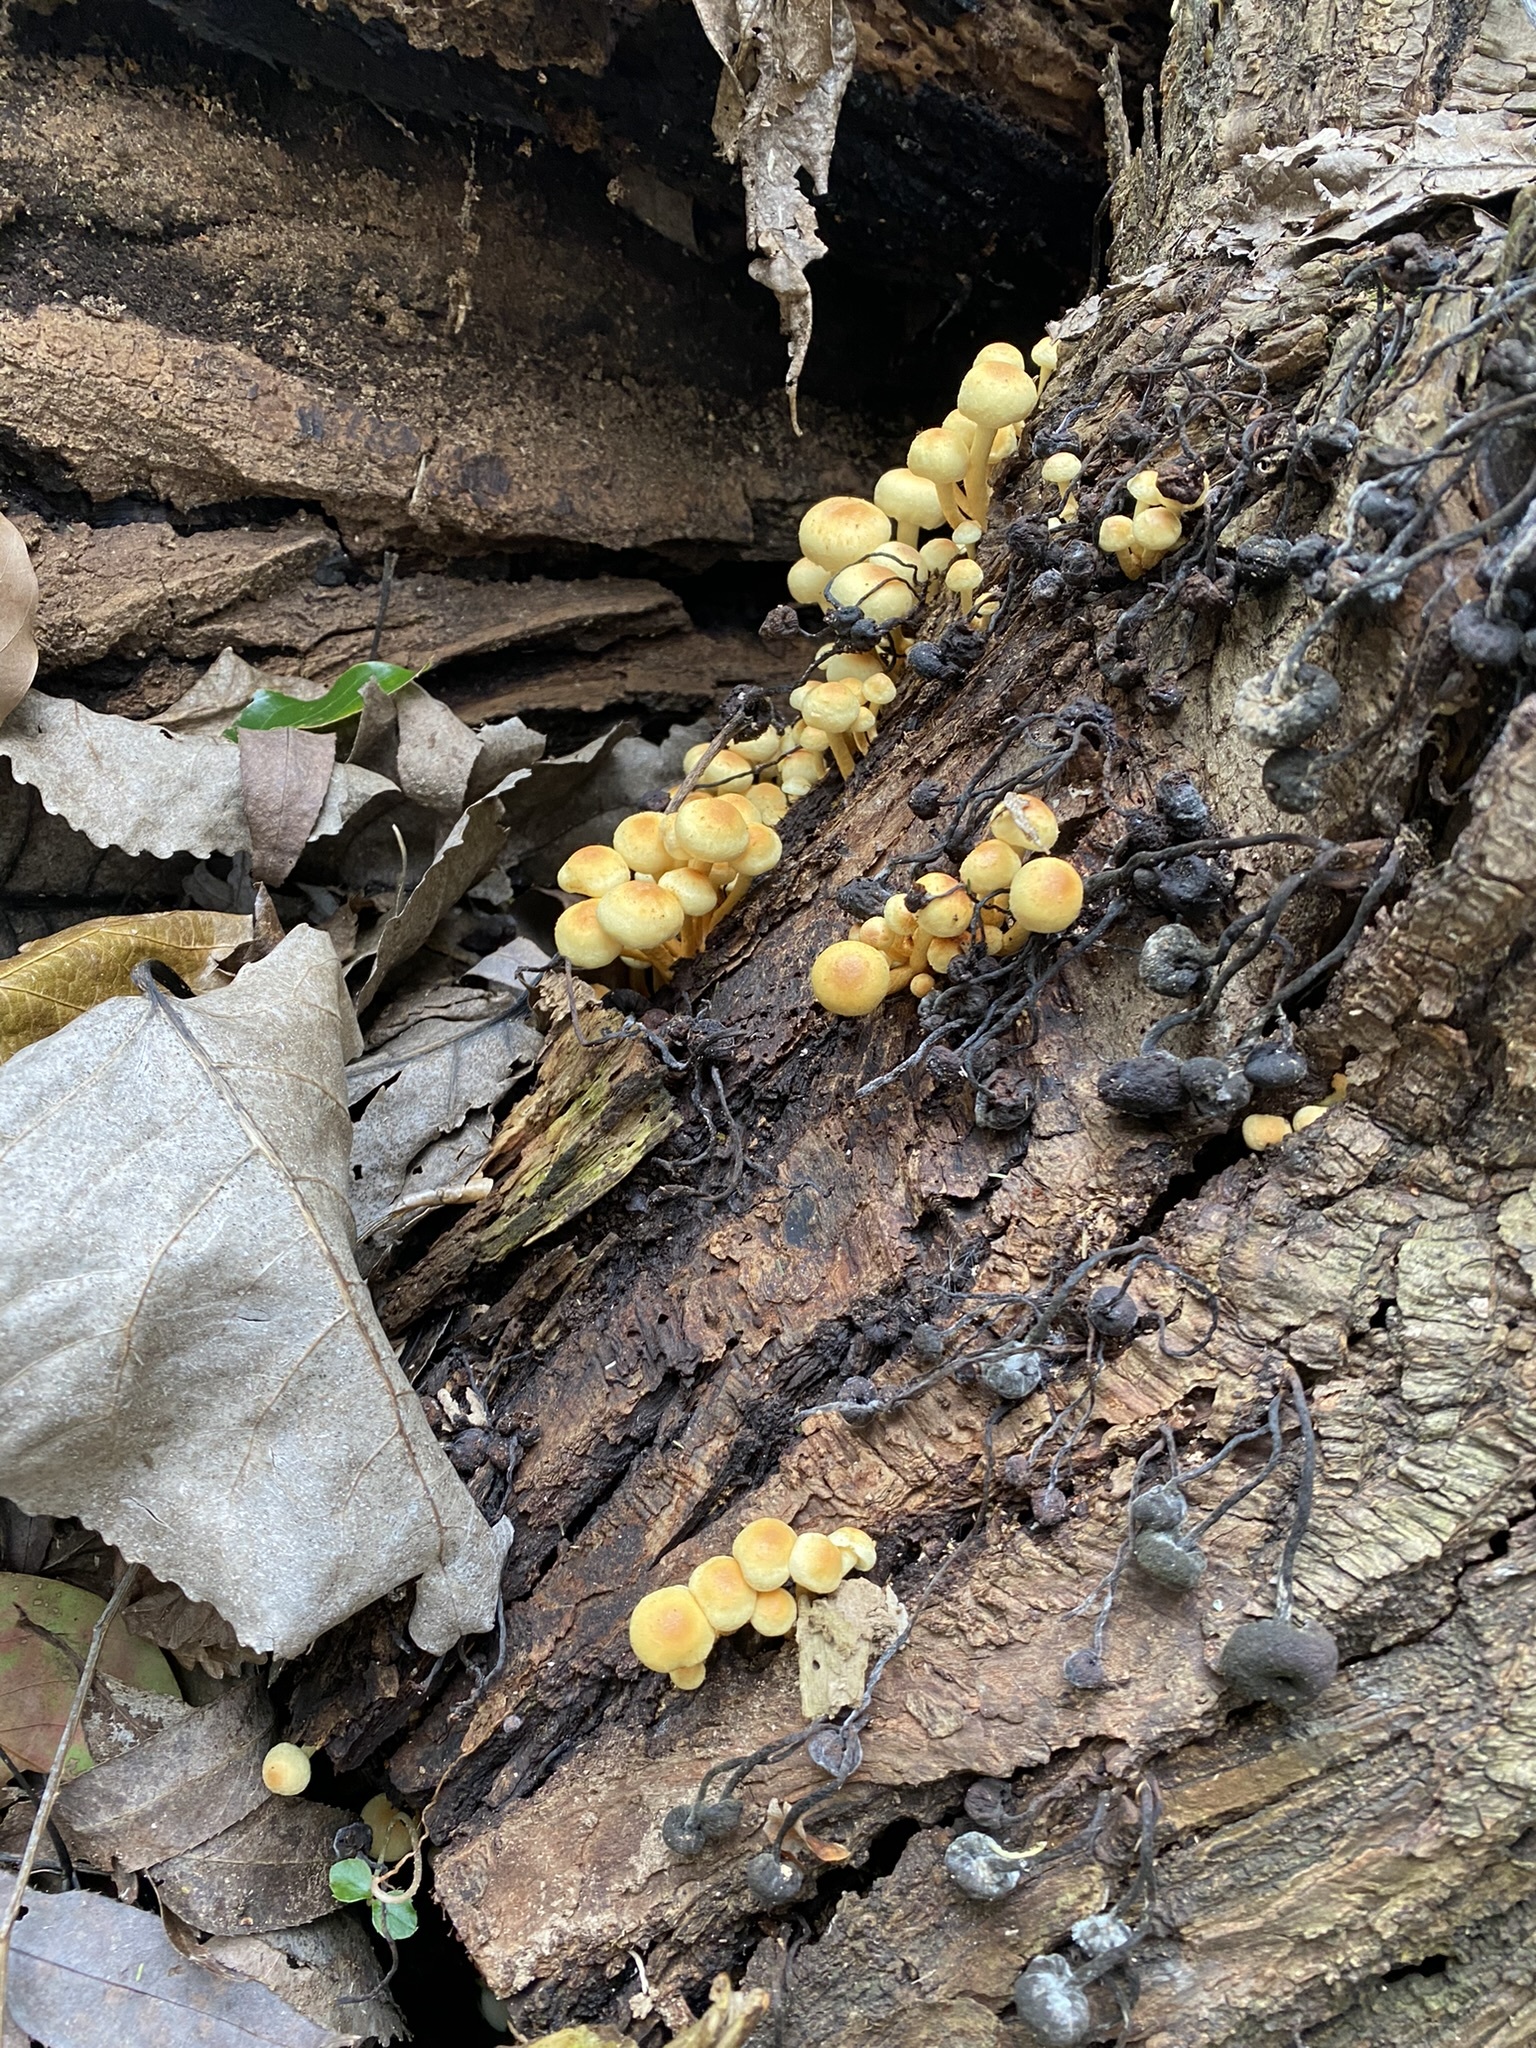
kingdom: Fungi
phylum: Basidiomycota
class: Agaricomycetes
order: Agaricales
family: Strophariaceae
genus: Hypholoma
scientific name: Hypholoma fasciculare
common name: Sulphur tuft
